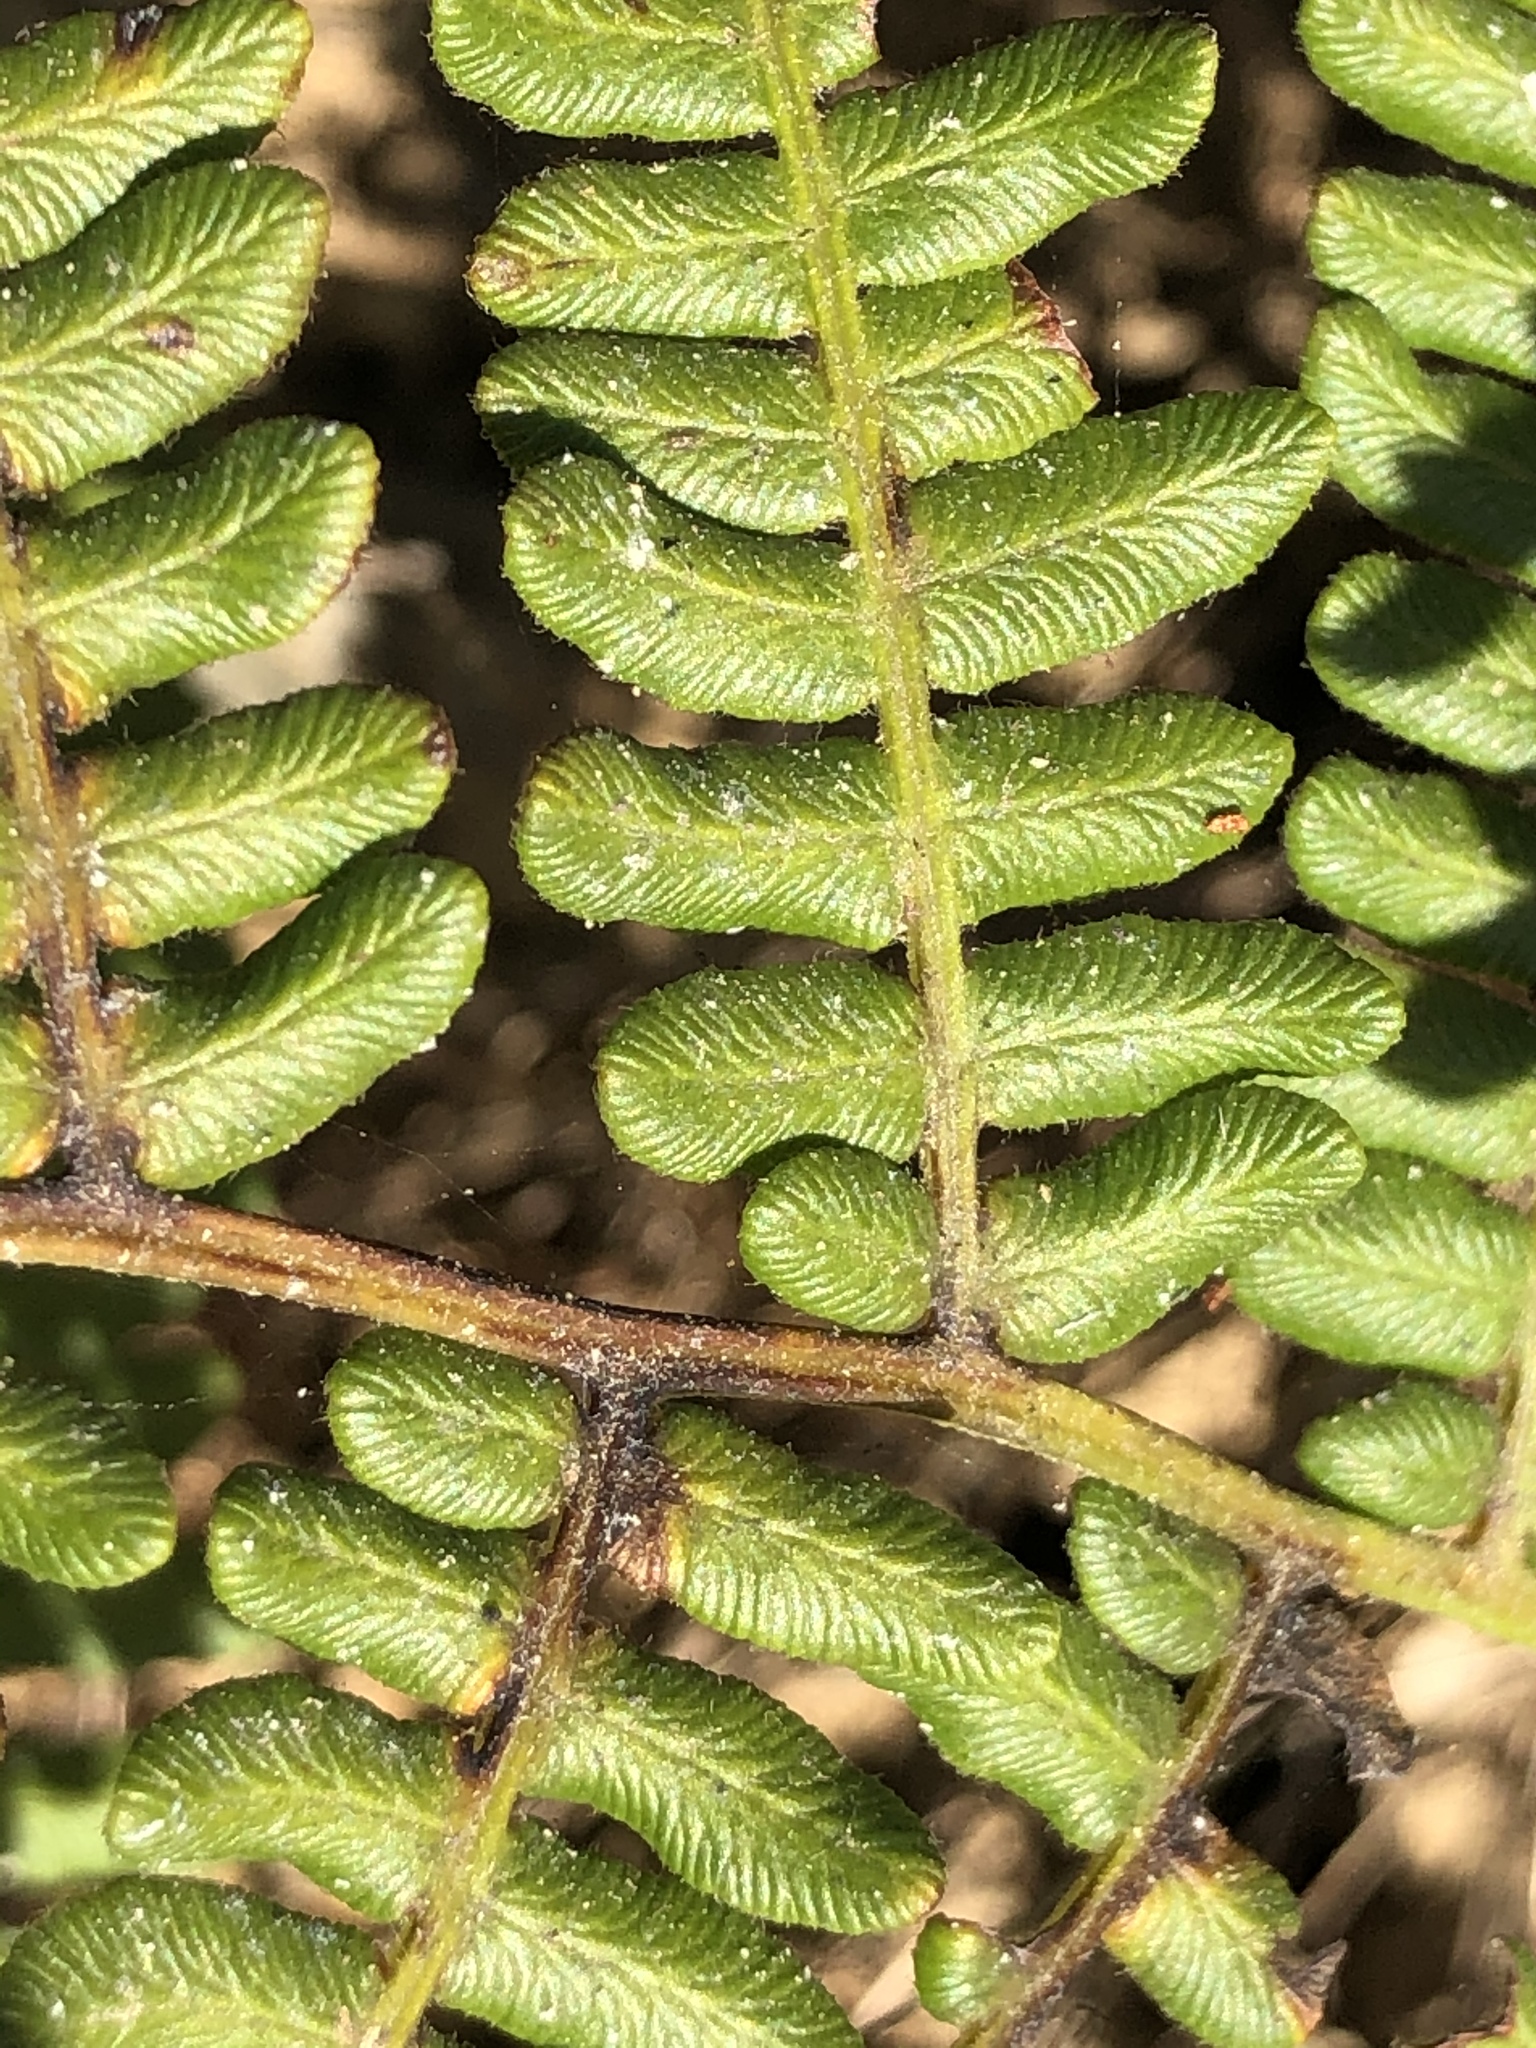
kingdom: Plantae
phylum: Tracheophyta
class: Polypodiopsida
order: Polypodiales
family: Dennstaedtiaceae
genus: Pteridium
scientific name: Pteridium aquilinum
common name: Bracken
